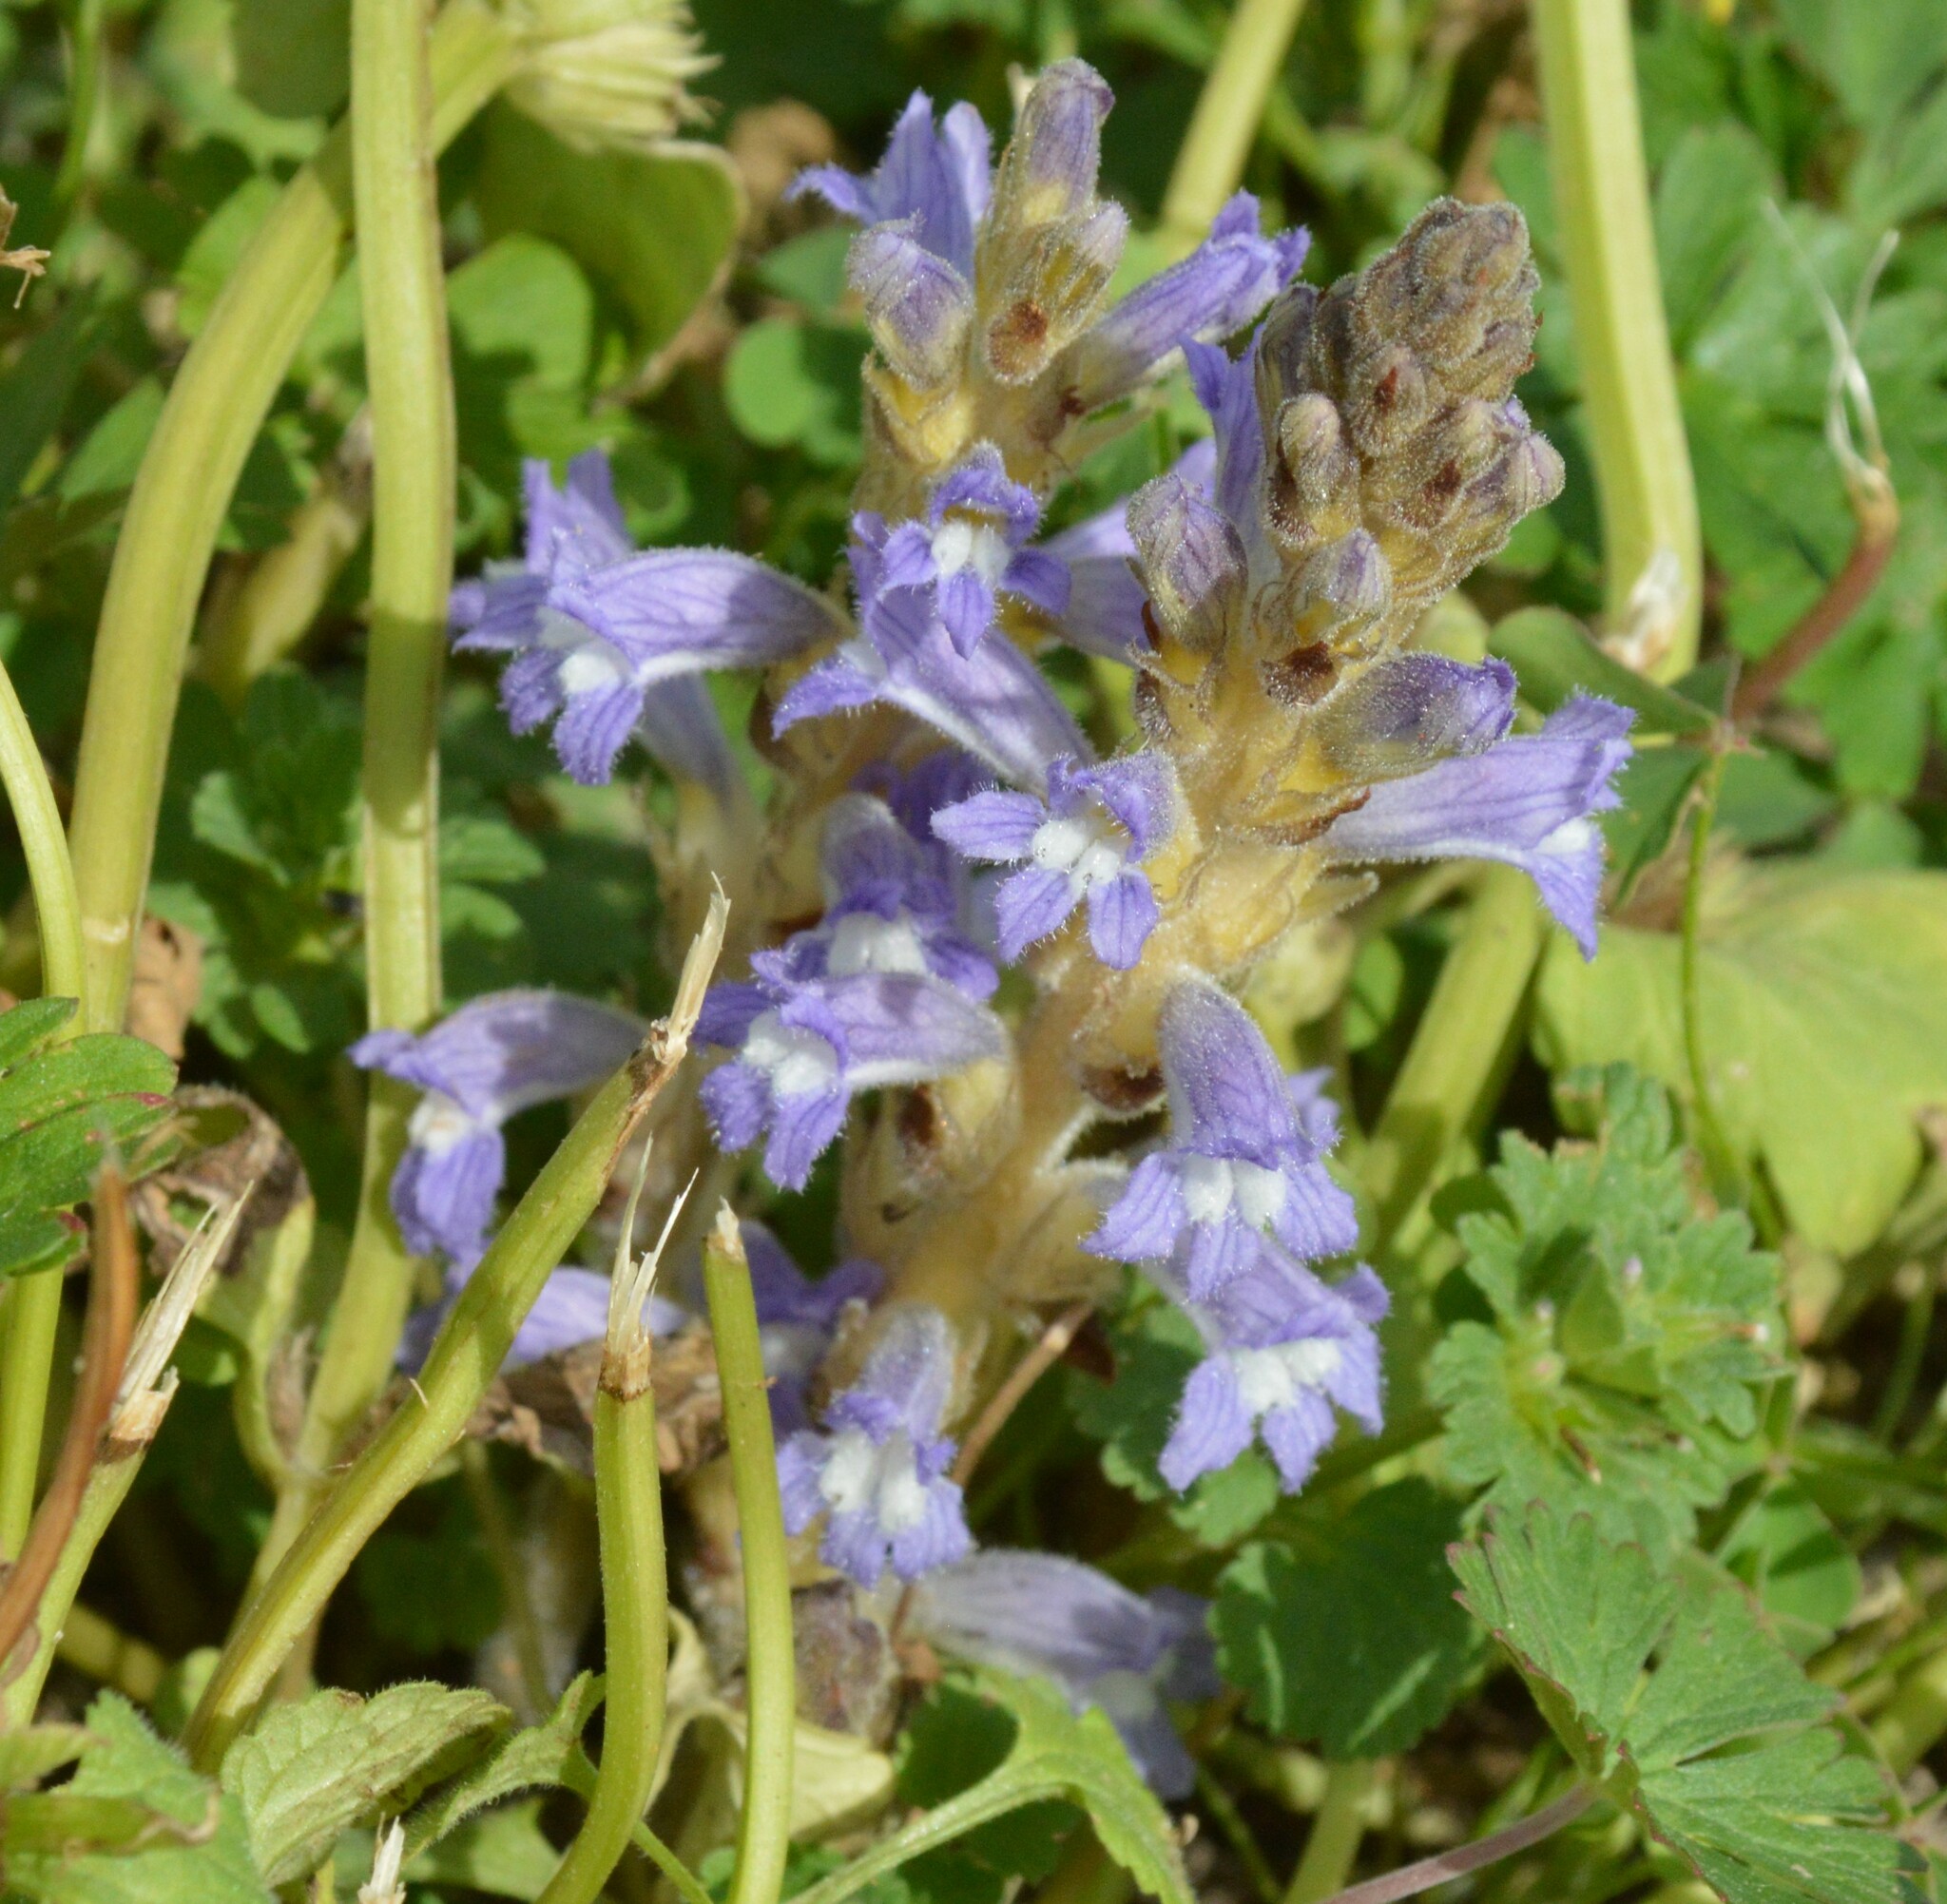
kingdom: Plantae
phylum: Tracheophyta
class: Magnoliopsida
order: Lamiales
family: Orobanchaceae
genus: Phelipanche
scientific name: Phelipanche mutelii
